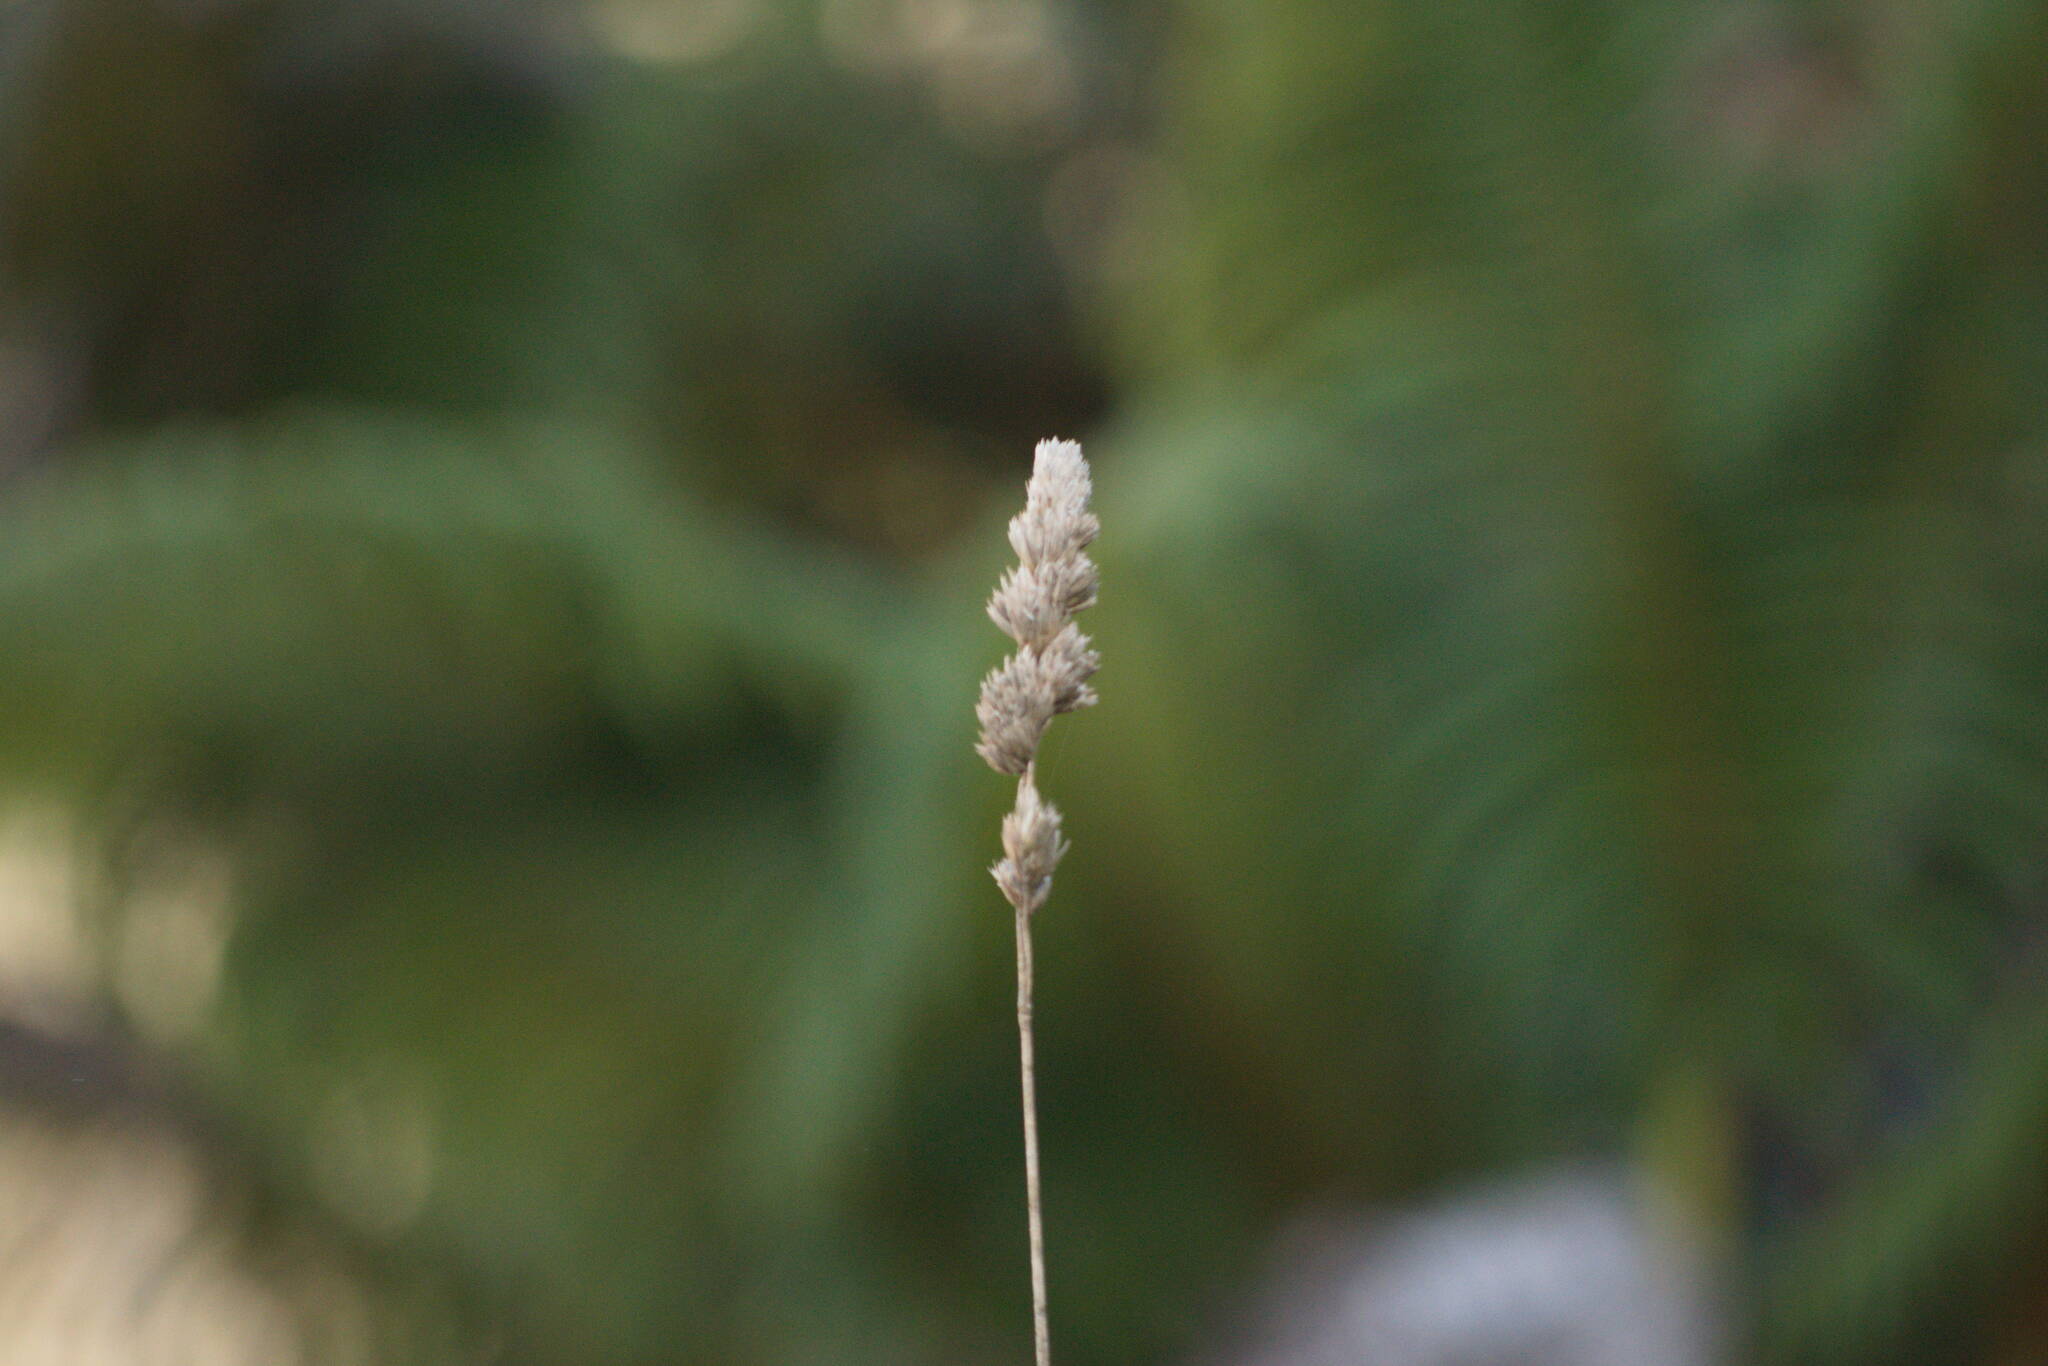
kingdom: Plantae
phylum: Tracheophyta
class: Liliopsida
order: Poales
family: Poaceae
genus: Dactylis
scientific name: Dactylis glomerata
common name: Orchardgrass
